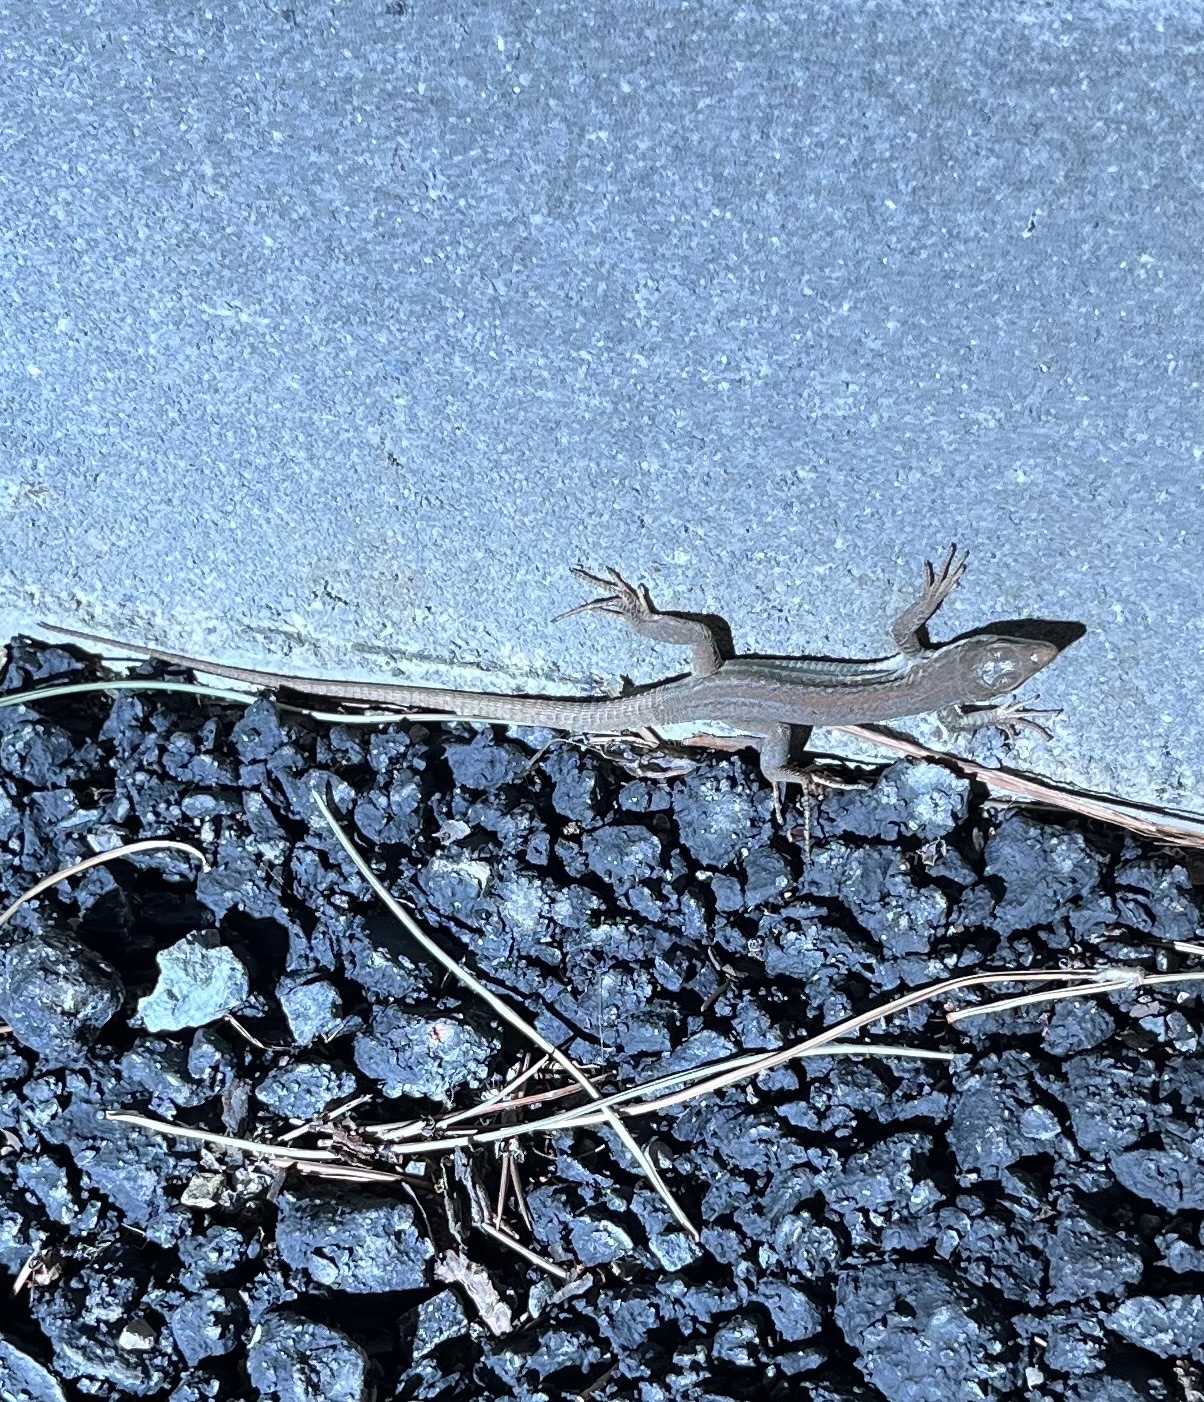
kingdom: Animalia
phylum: Chordata
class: Squamata
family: Lacertidae
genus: Podarcis
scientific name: Podarcis siculus
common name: Italian wall lizard
